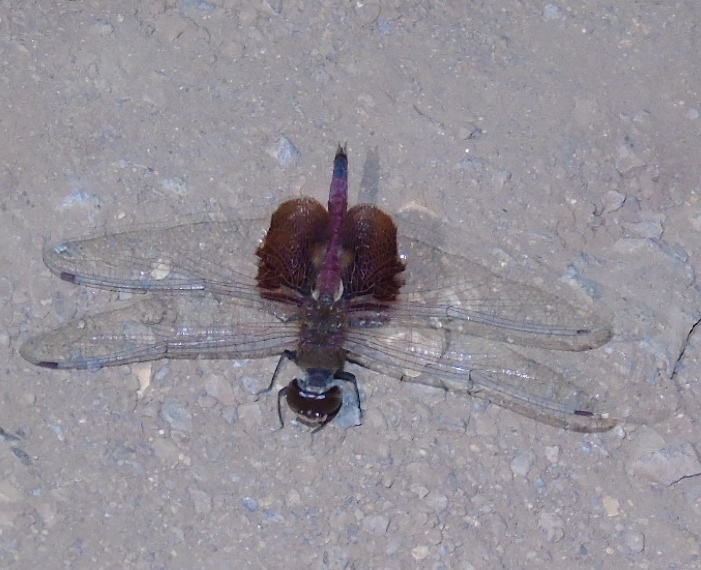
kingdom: Animalia
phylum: Arthropoda
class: Insecta
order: Odonata
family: Libellulidae
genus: Tramea
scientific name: Tramea
